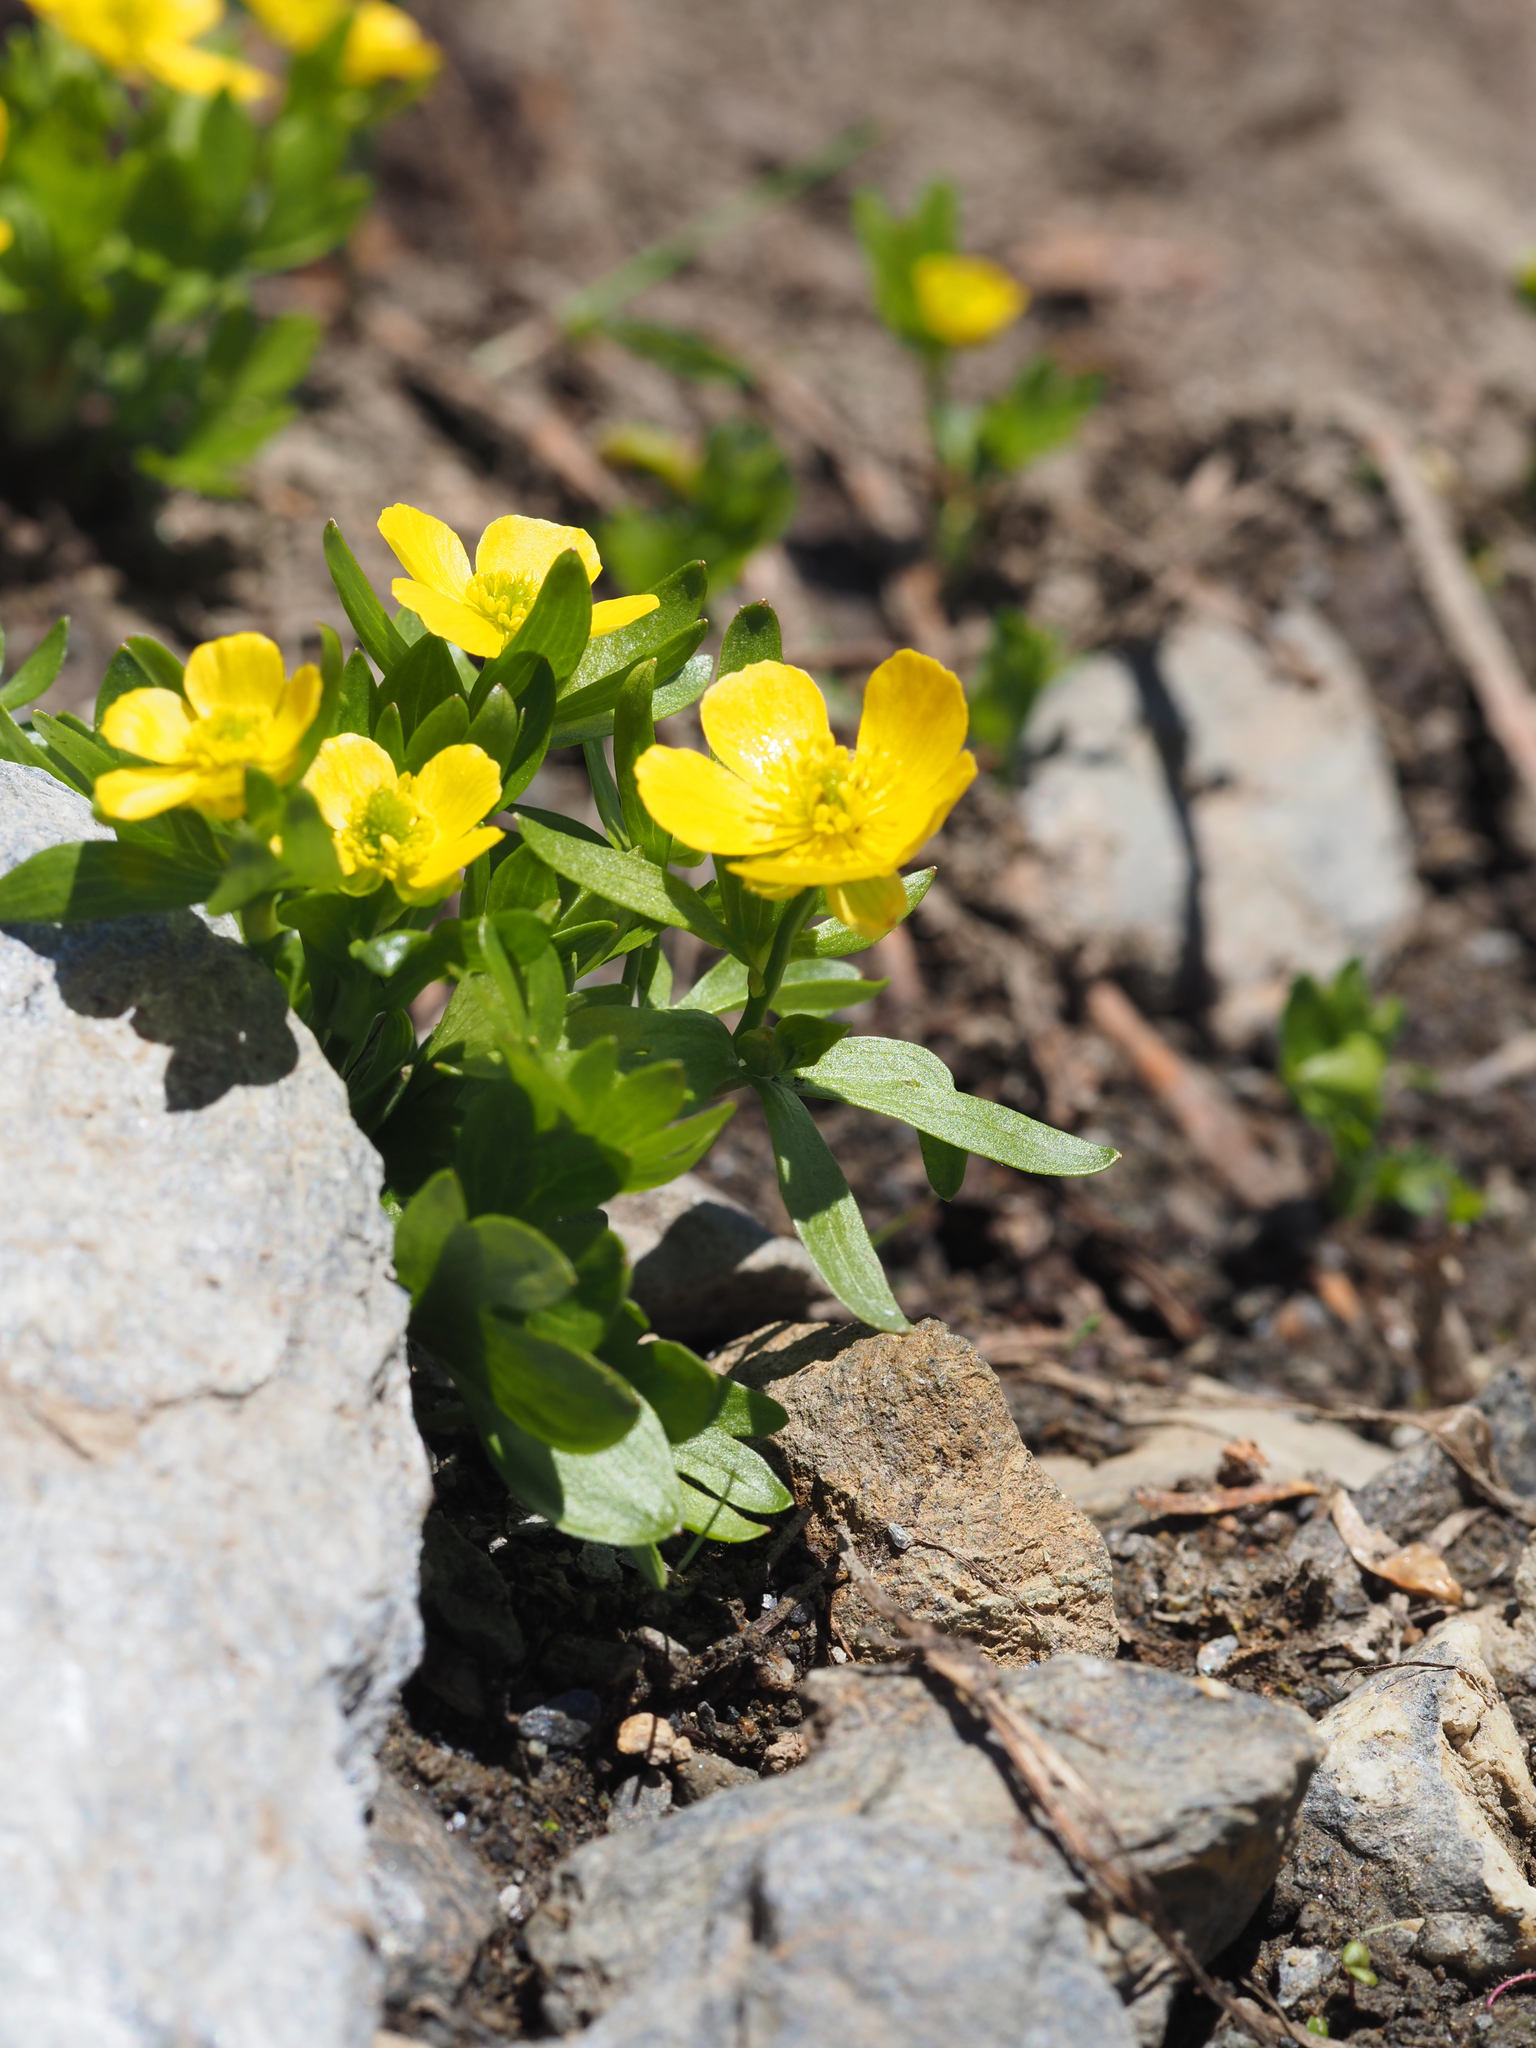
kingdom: Plantae
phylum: Tracheophyta
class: Magnoliopsida
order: Ranunculales
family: Ranunculaceae
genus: Ranunculus
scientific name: Ranunculus eschscholtzii
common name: Eschscholtz's buttercup
